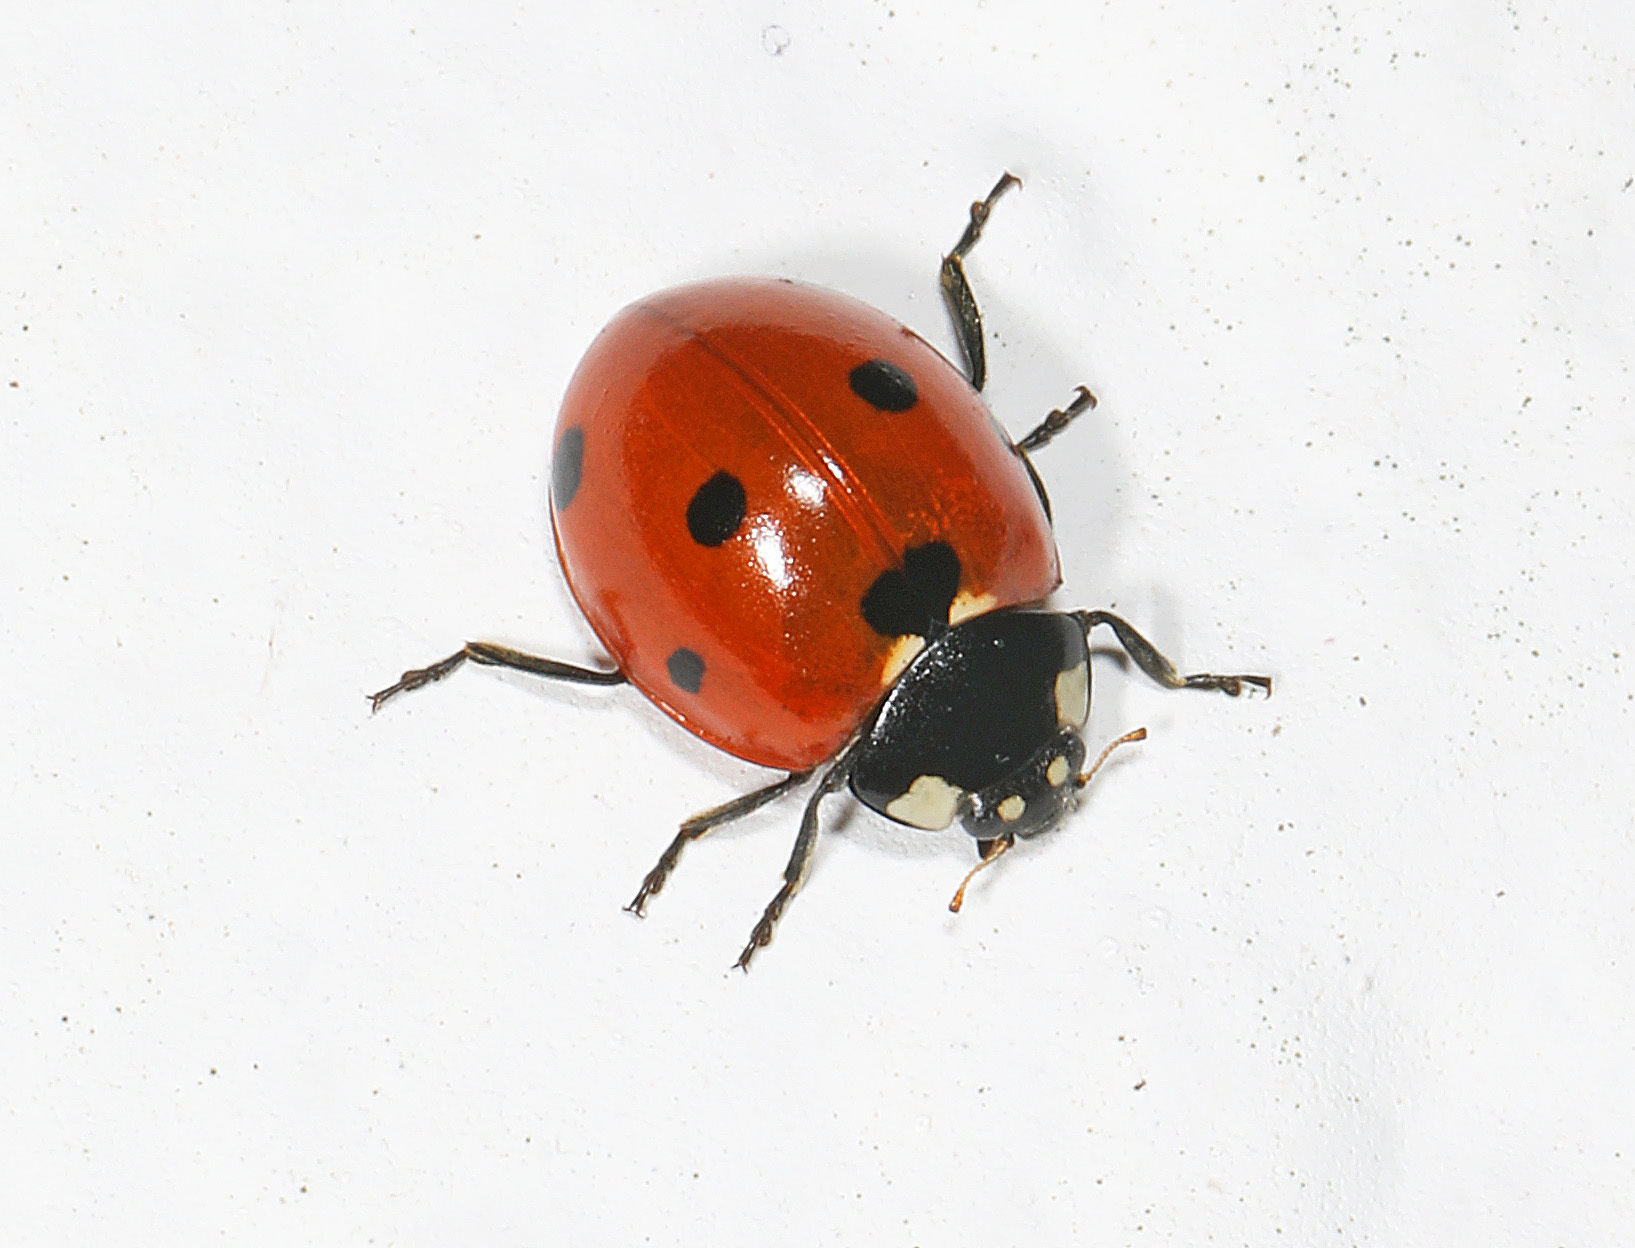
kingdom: Animalia
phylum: Arthropoda
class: Insecta
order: Coleoptera
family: Coccinellidae
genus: Coccinella
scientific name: Coccinella septempunctata
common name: Sevenspotted lady beetle
